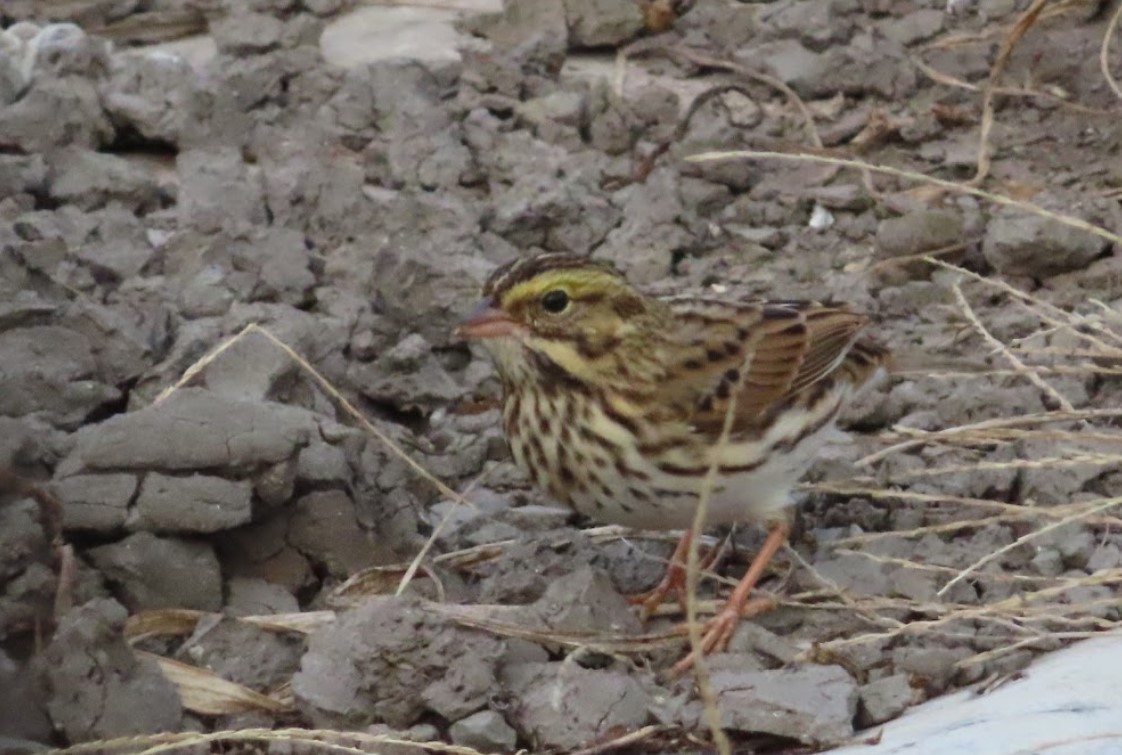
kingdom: Animalia
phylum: Chordata
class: Aves
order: Passeriformes
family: Passerellidae
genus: Passerculus
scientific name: Passerculus sandwichensis
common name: Savannah sparrow
